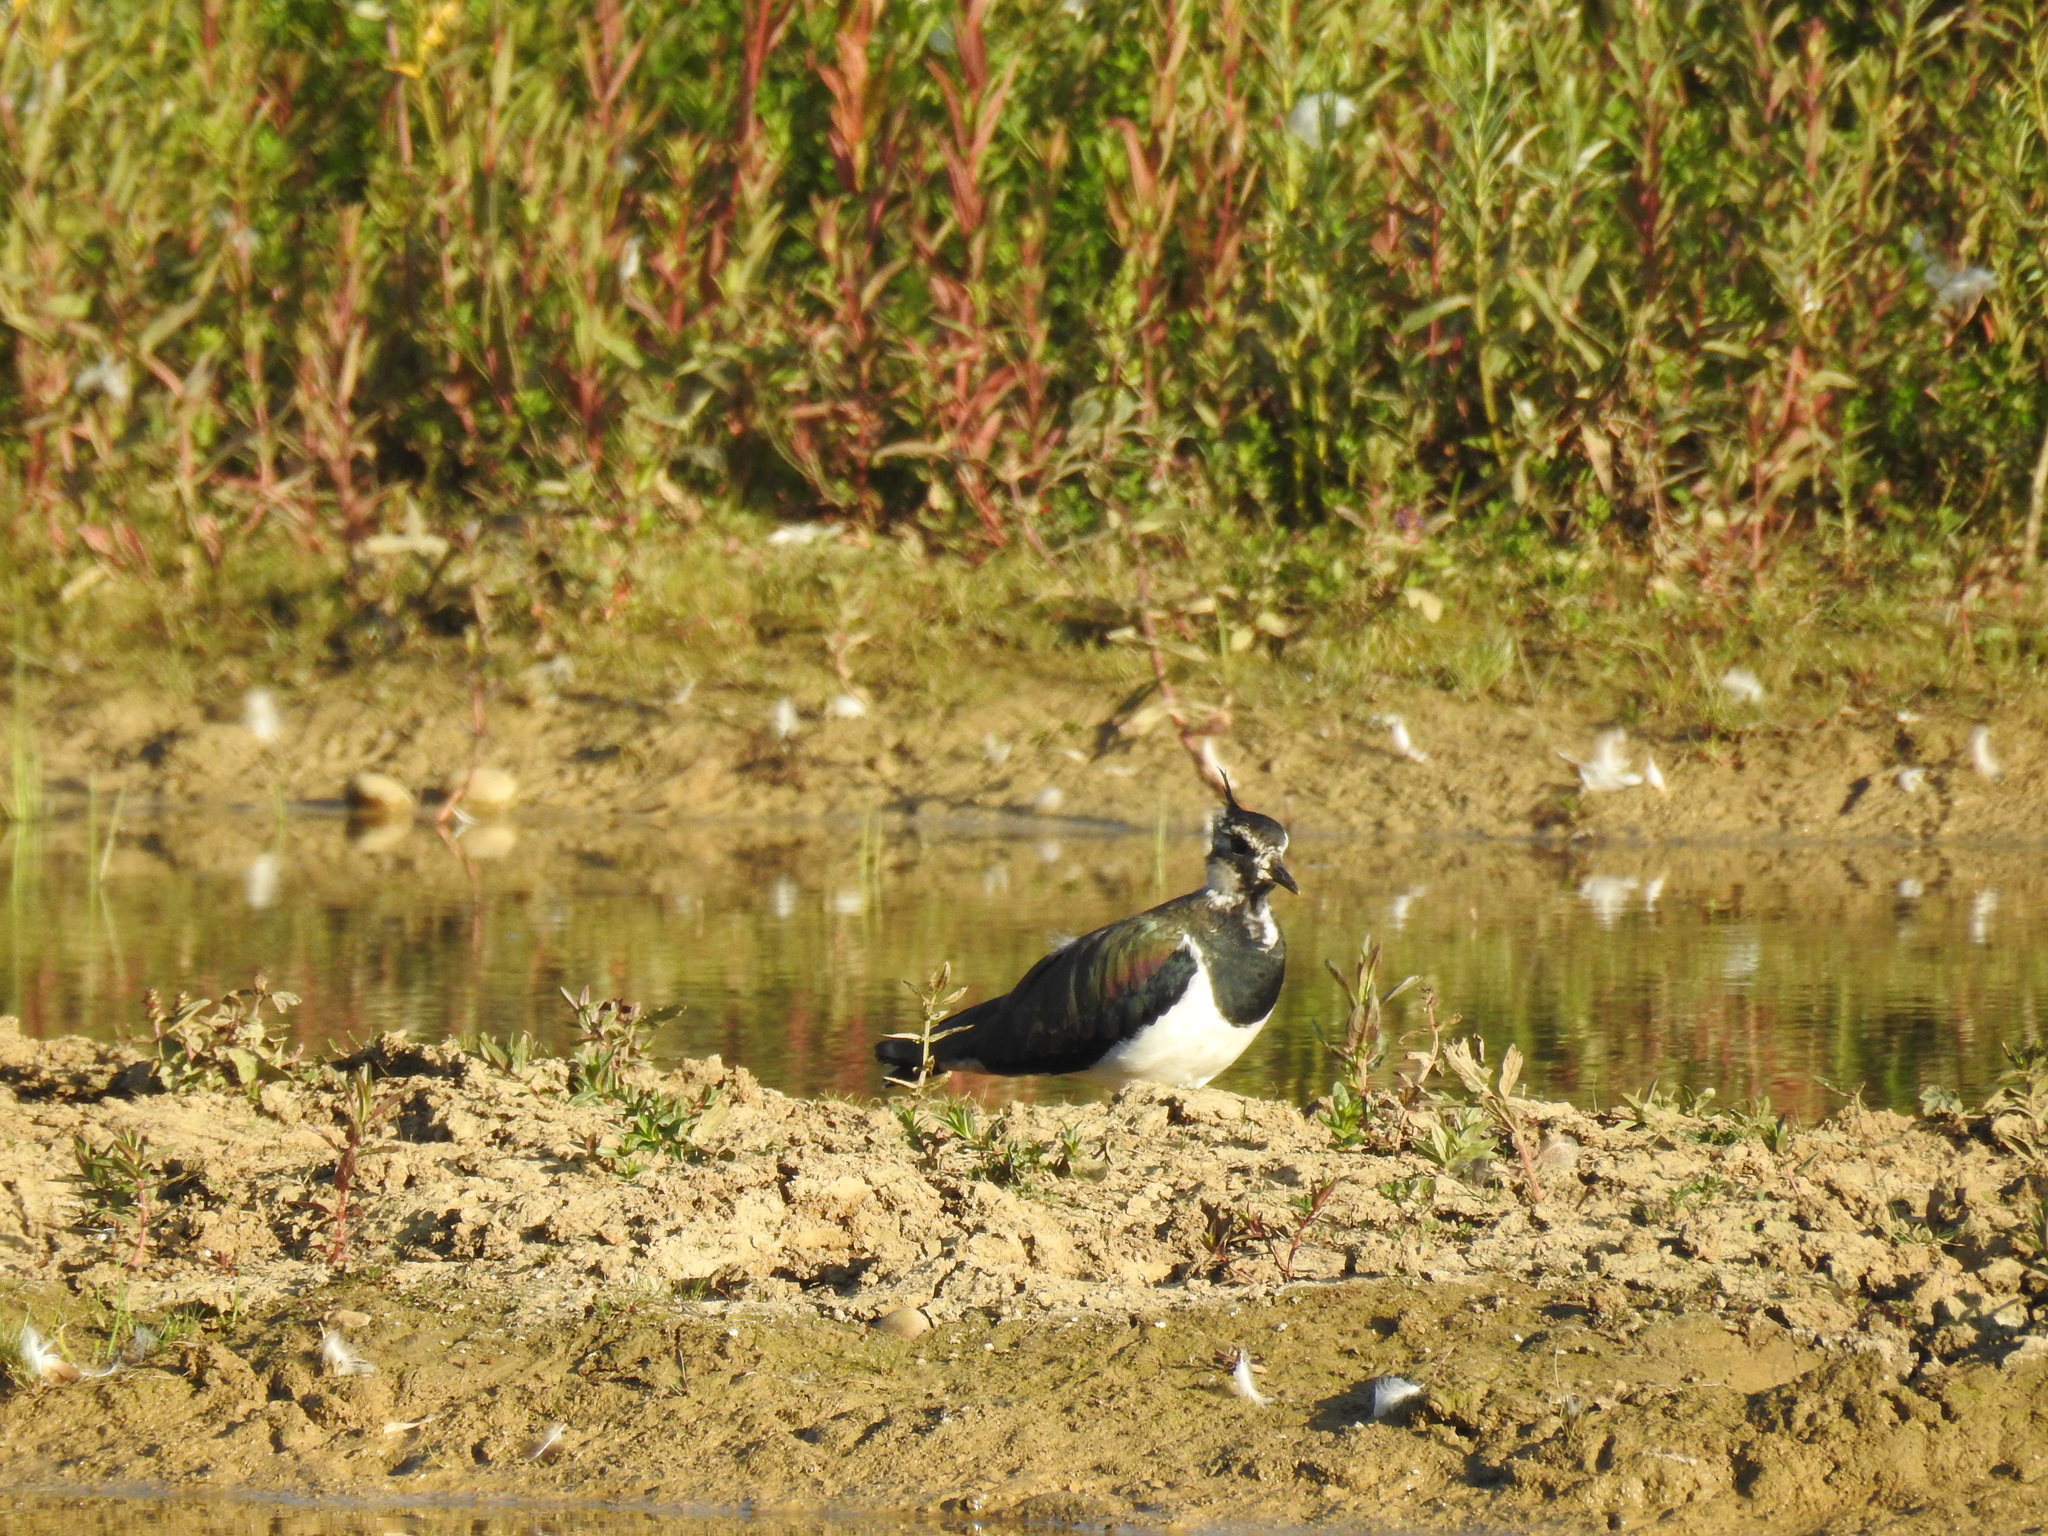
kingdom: Animalia
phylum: Chordata
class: Aves
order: Charadriiformes
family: Charadriidae
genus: Vanellus
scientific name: Vanellus vanellus
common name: Northern lapwing
